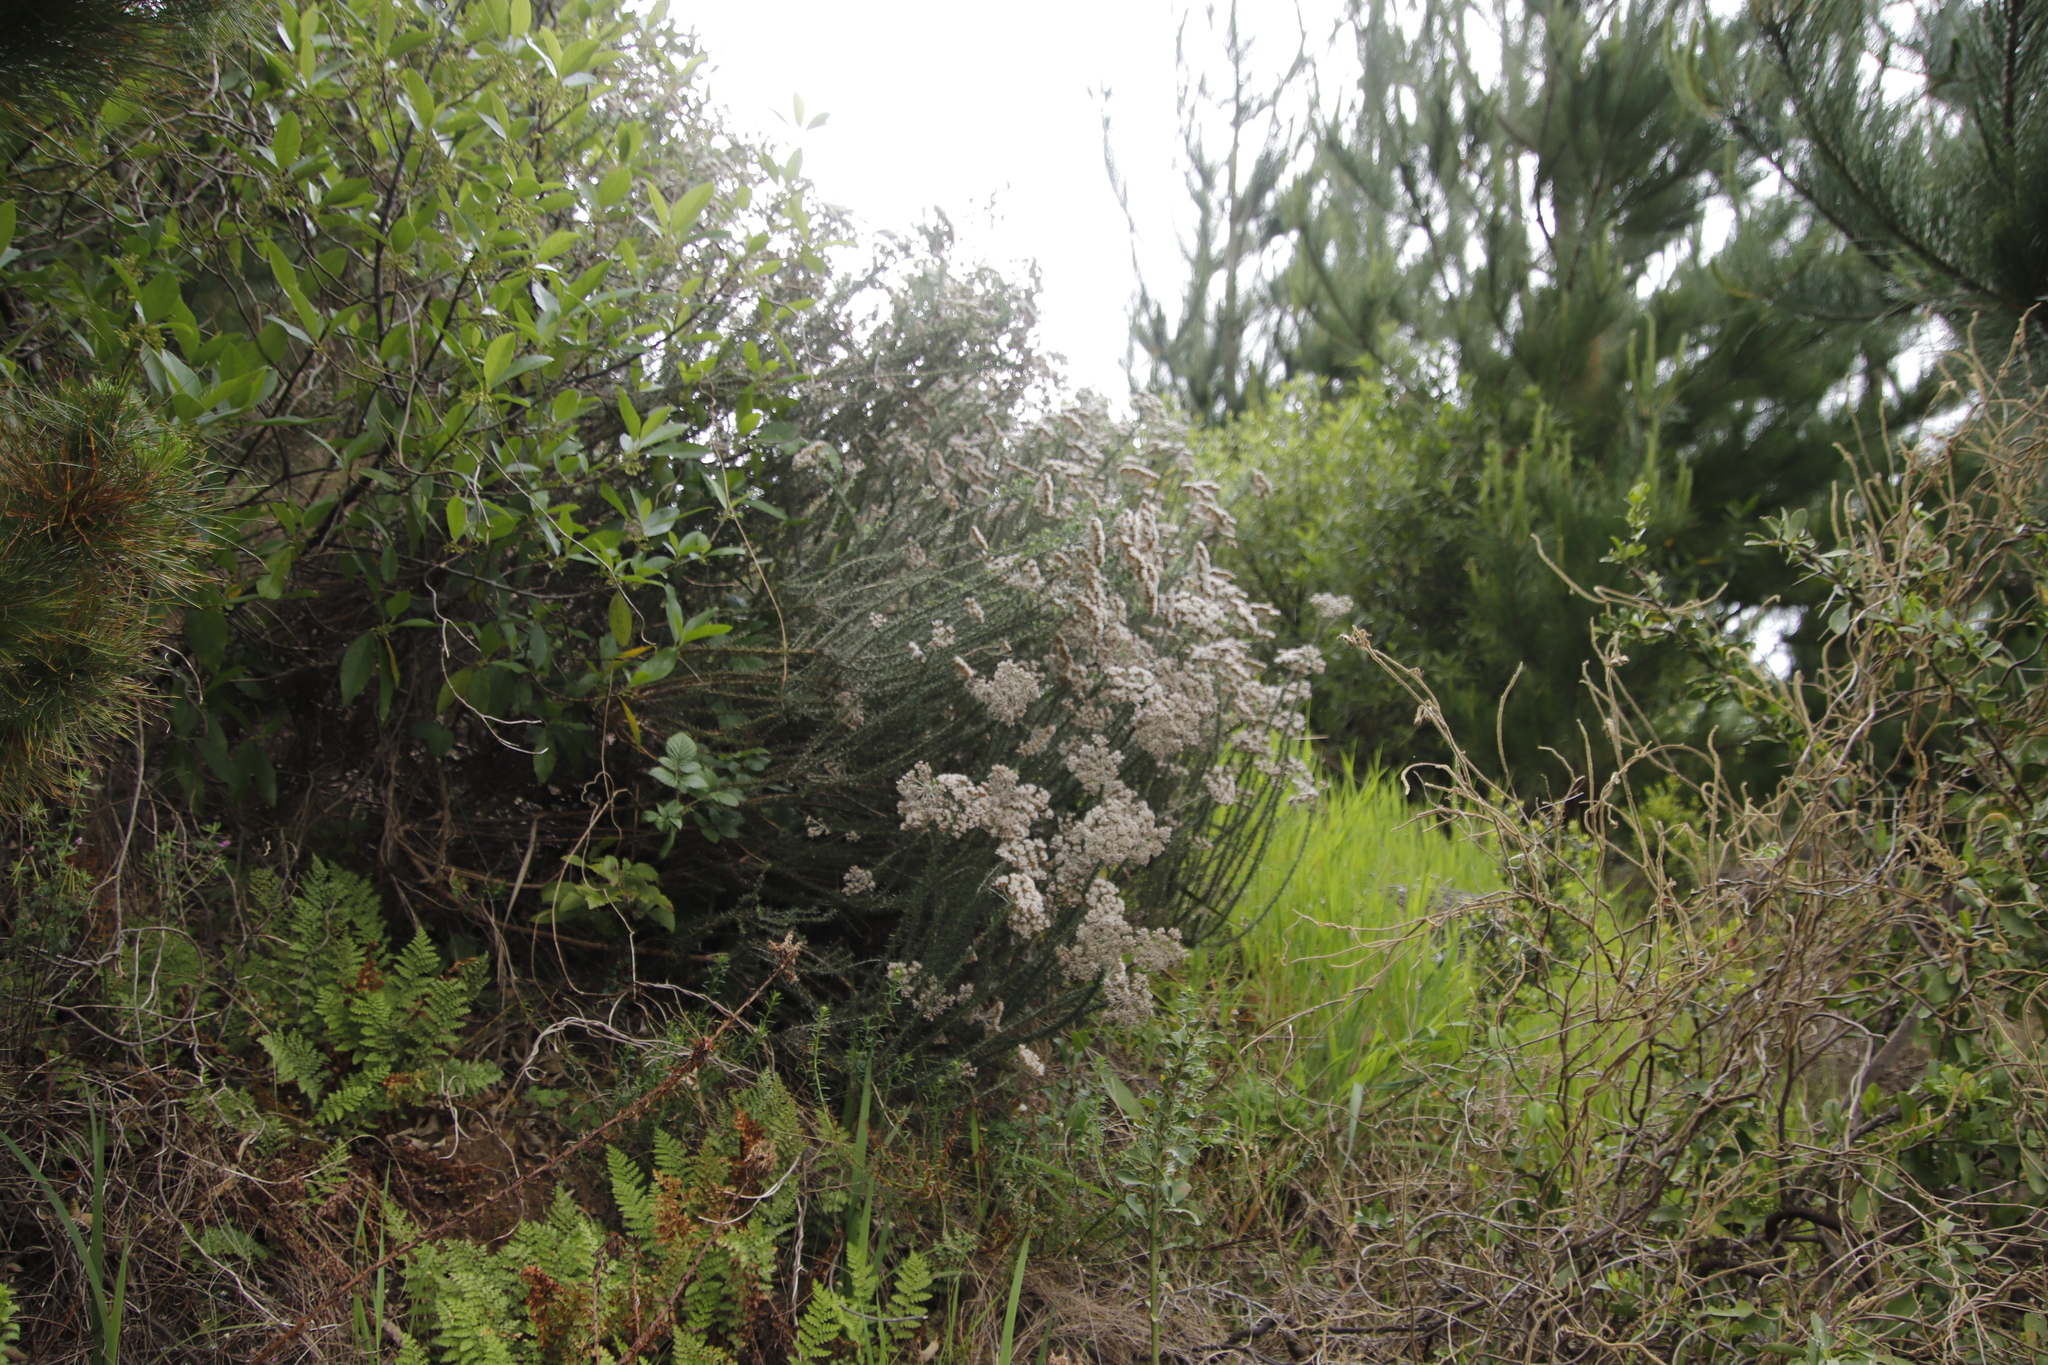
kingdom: Plantae
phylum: Tracheophyta
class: Magnoliopsida
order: Asterales
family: Asteraceae
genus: Metalasia
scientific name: Metalasia densa
